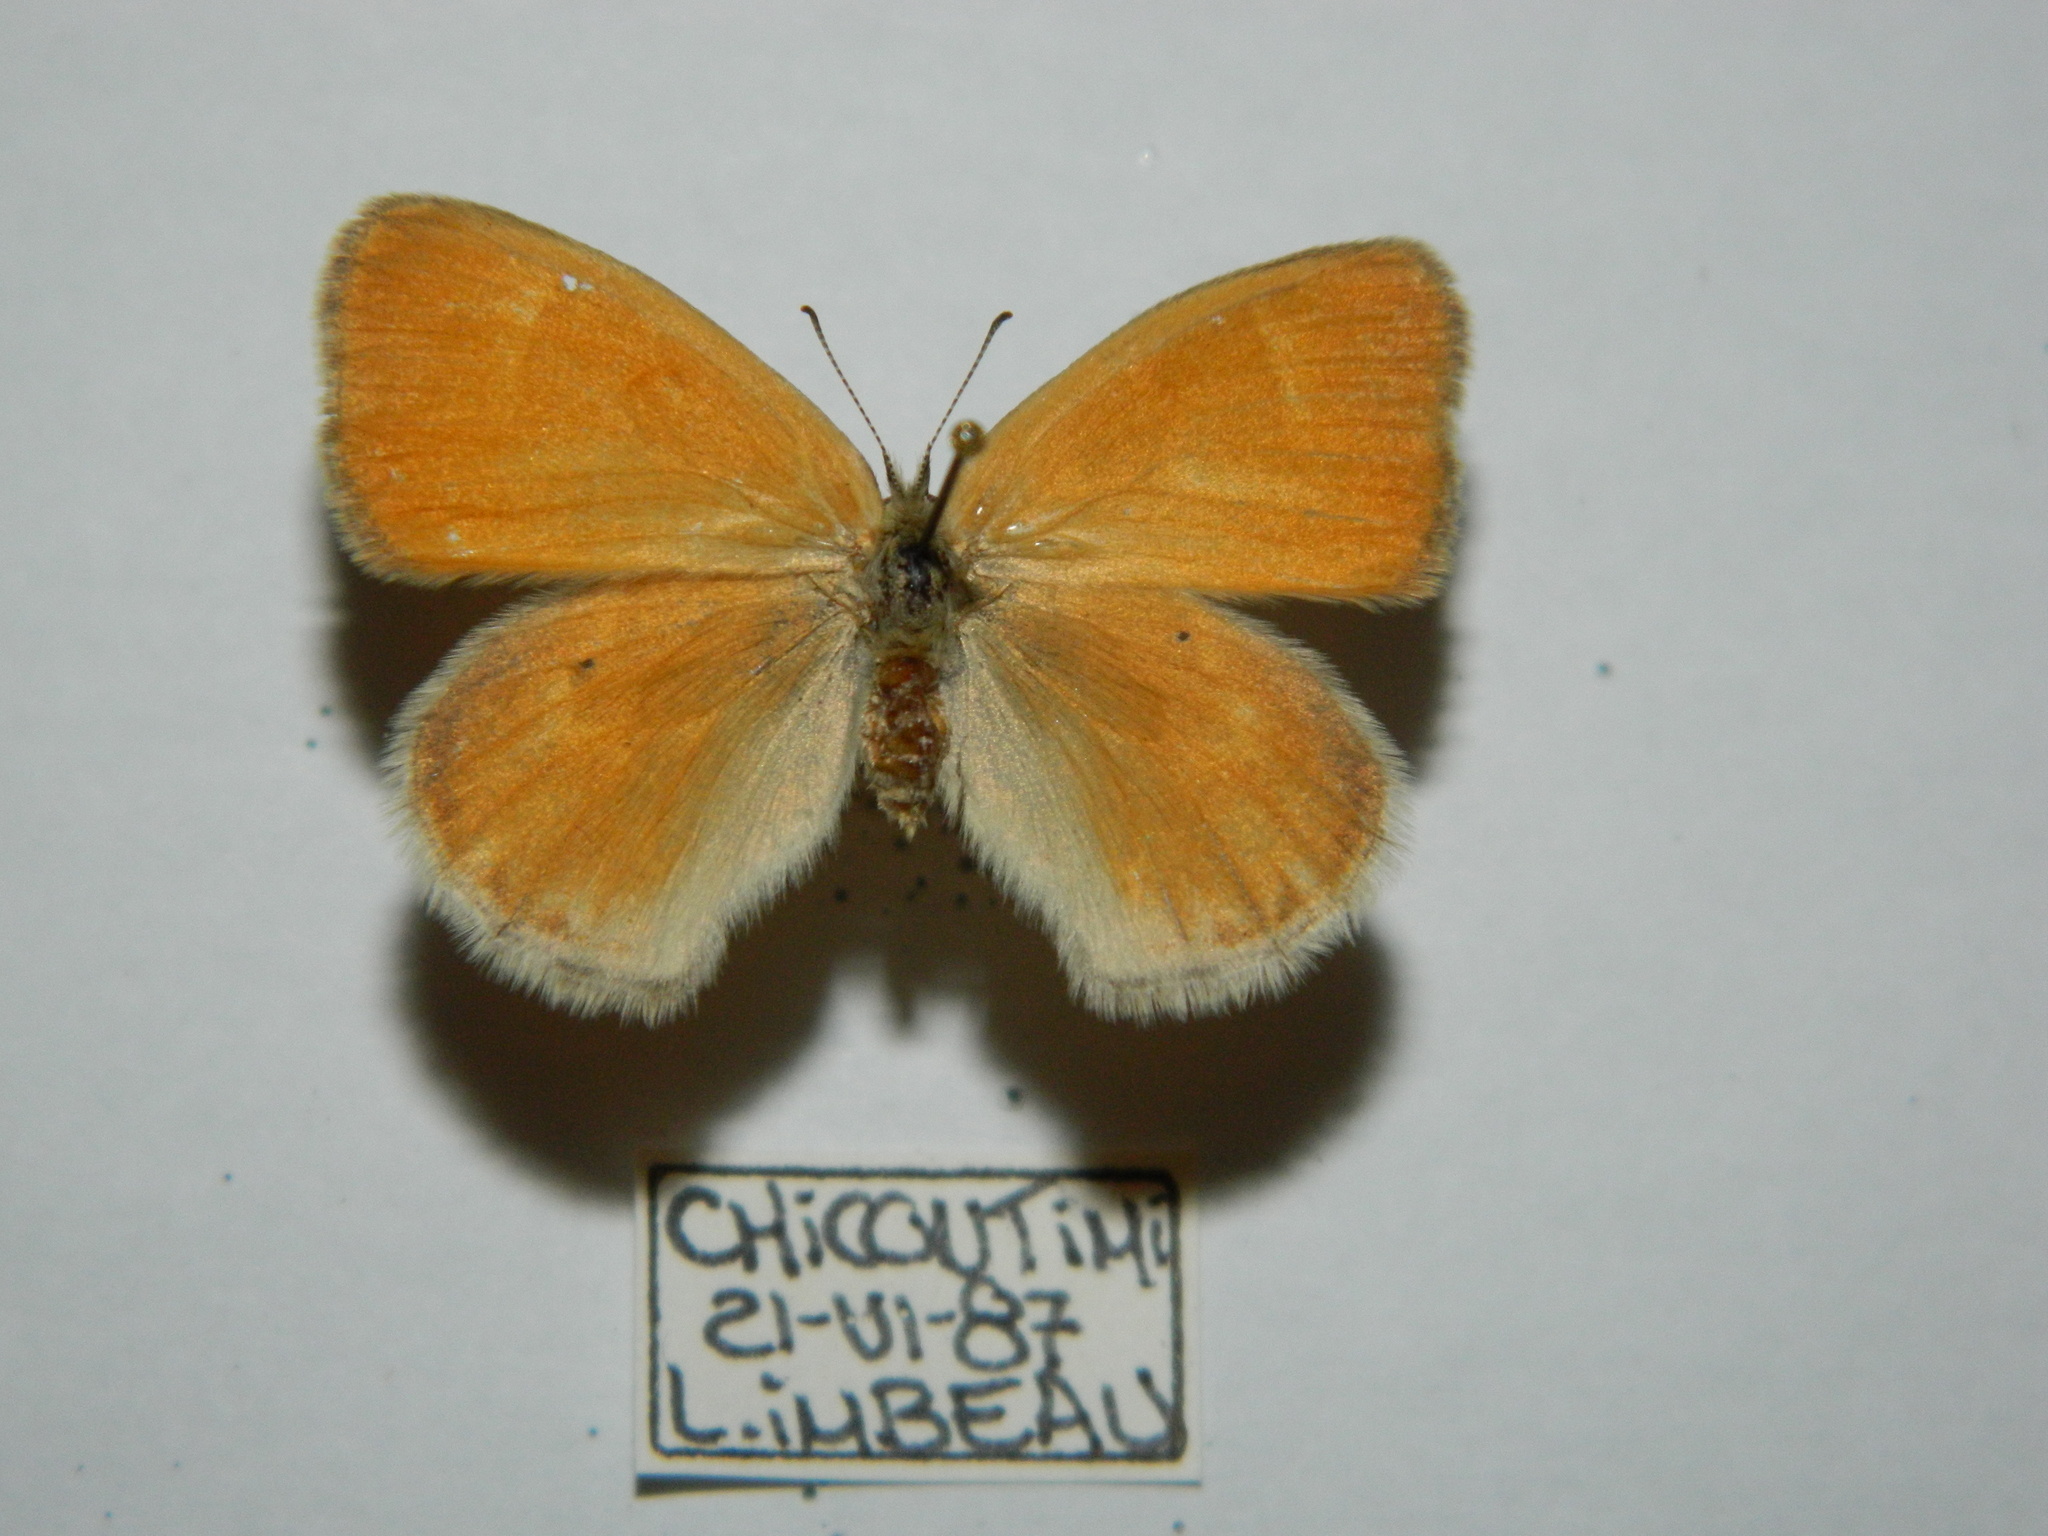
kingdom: Animalia
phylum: Arthropoda
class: Insecta
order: Lepidoptera
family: Nymphalidae
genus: Coenonympha
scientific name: Coenonympha california
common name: Common ringlet
